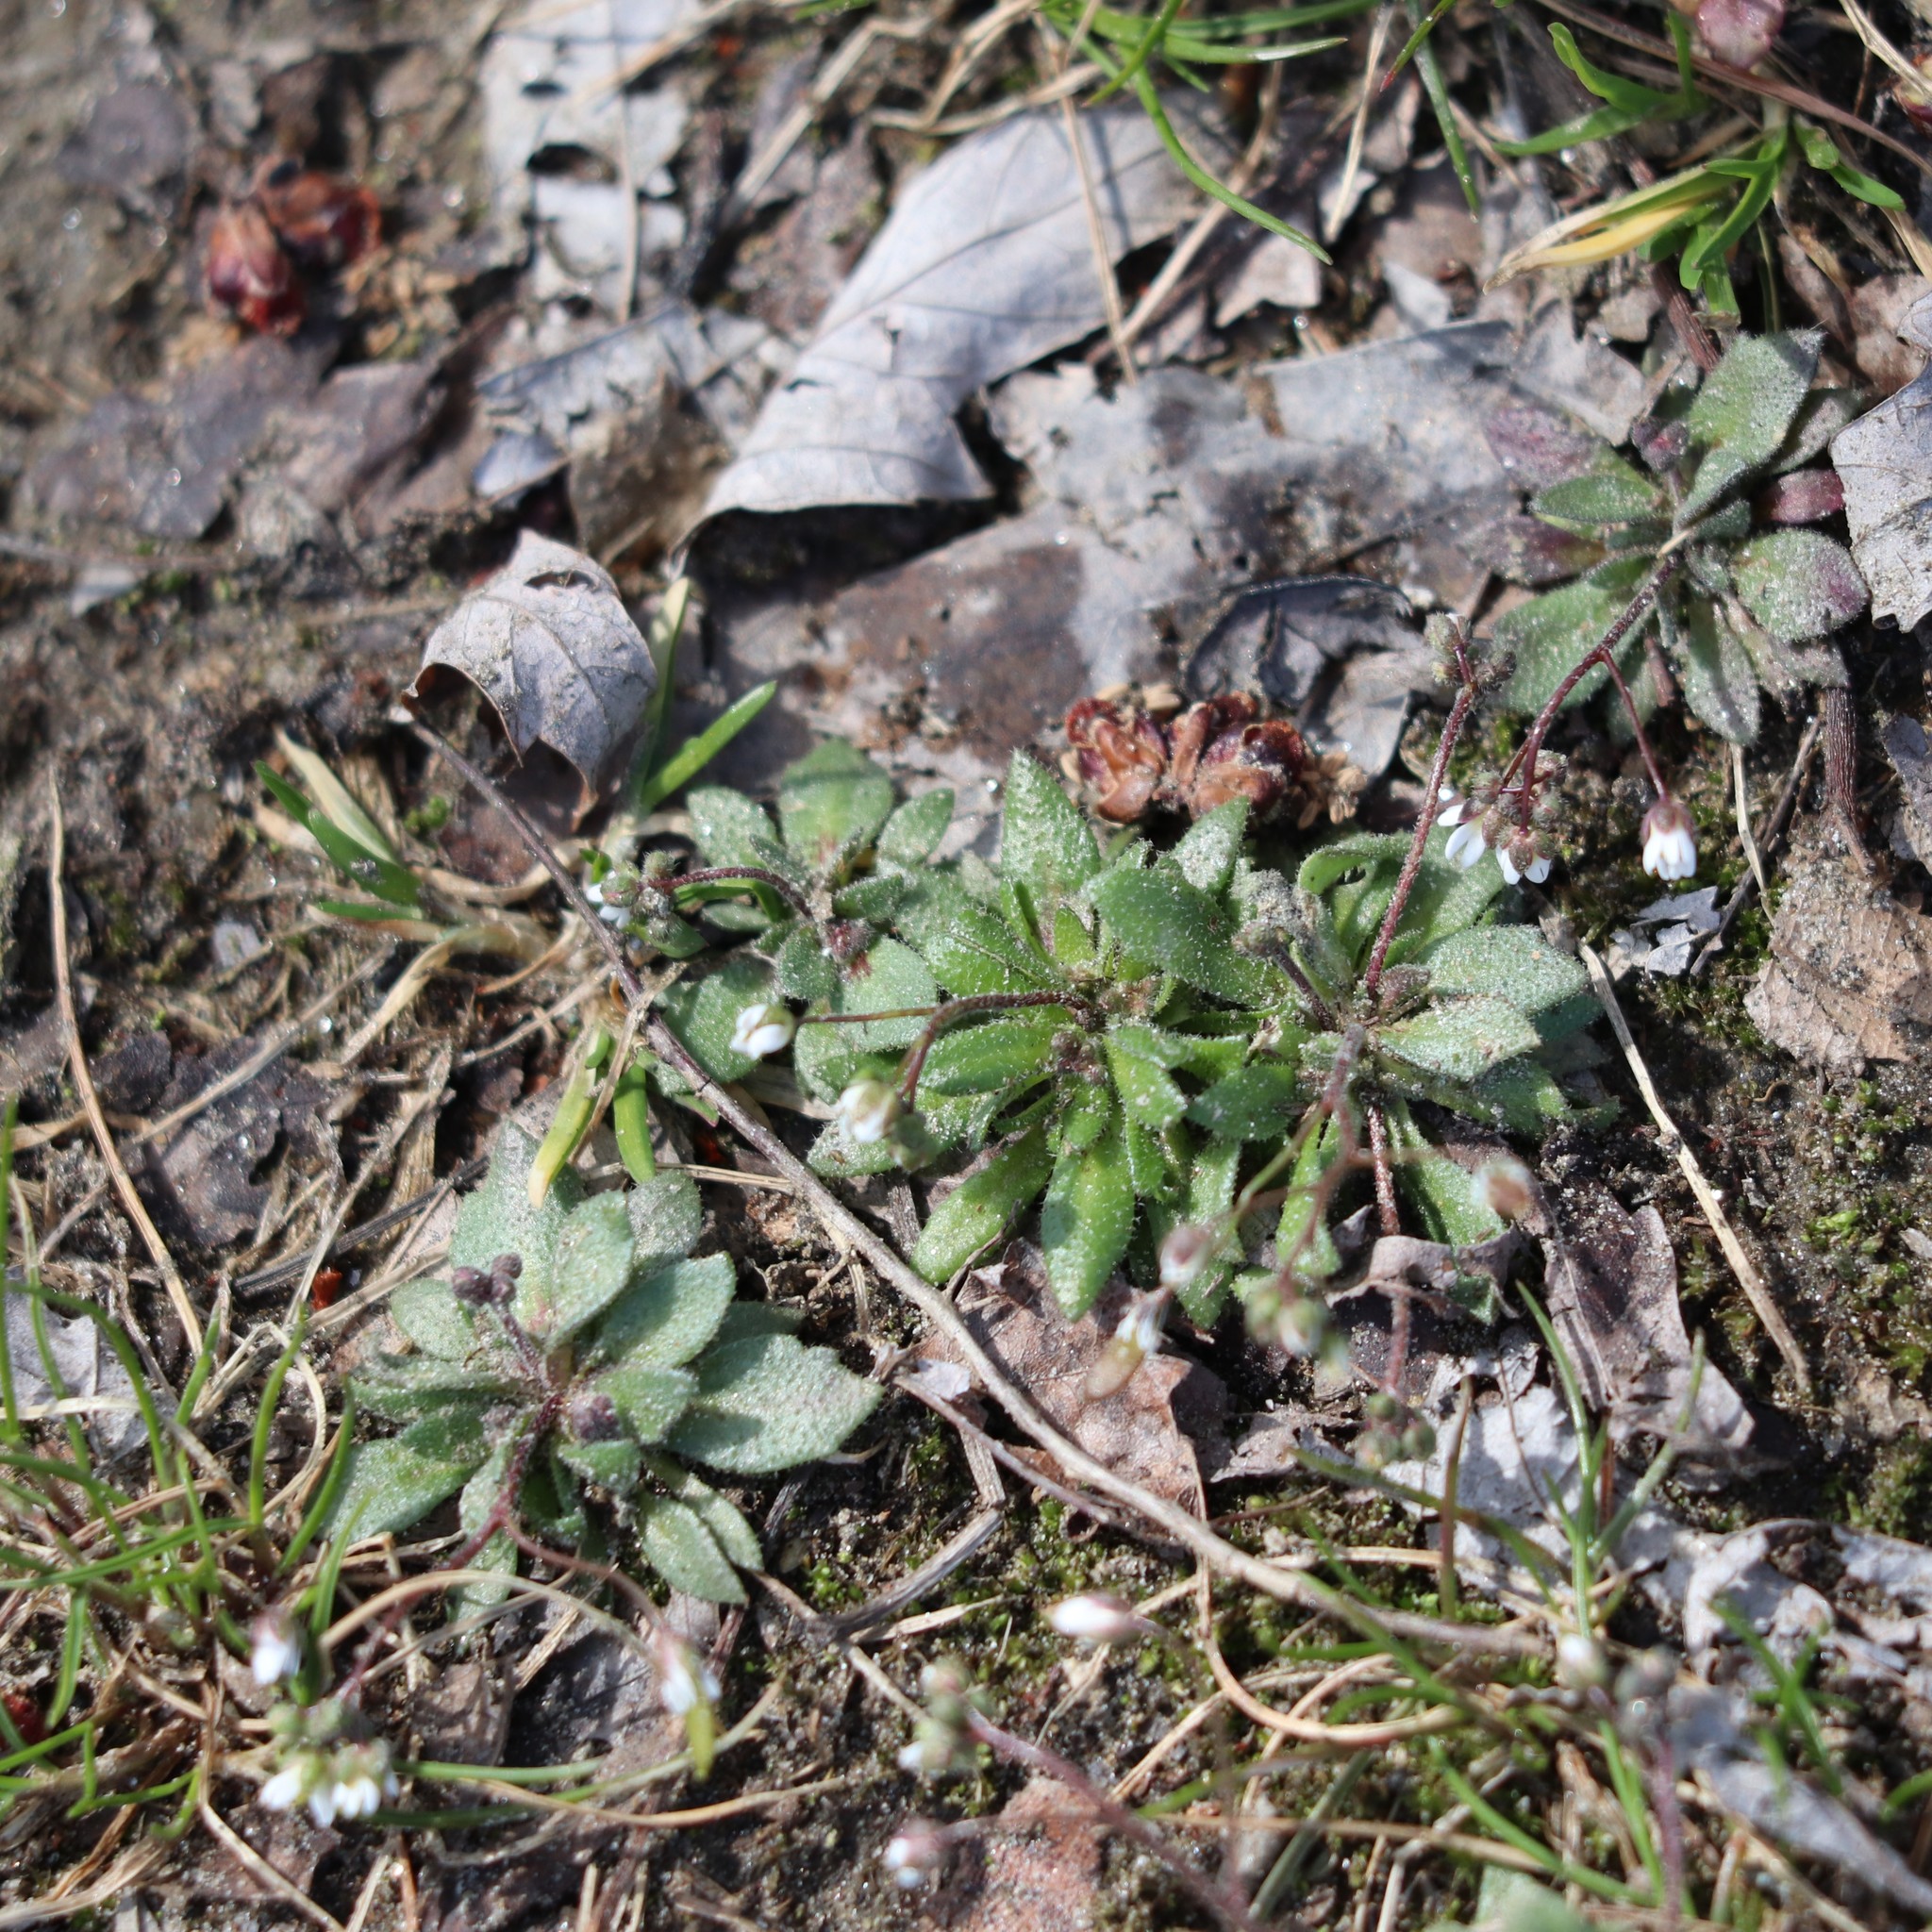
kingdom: Plantae
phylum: Tracheophyta
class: Magnoliopsida
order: Brassicales
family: Brassicaceae
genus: Draba
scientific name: Draba verna
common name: Spring draba
